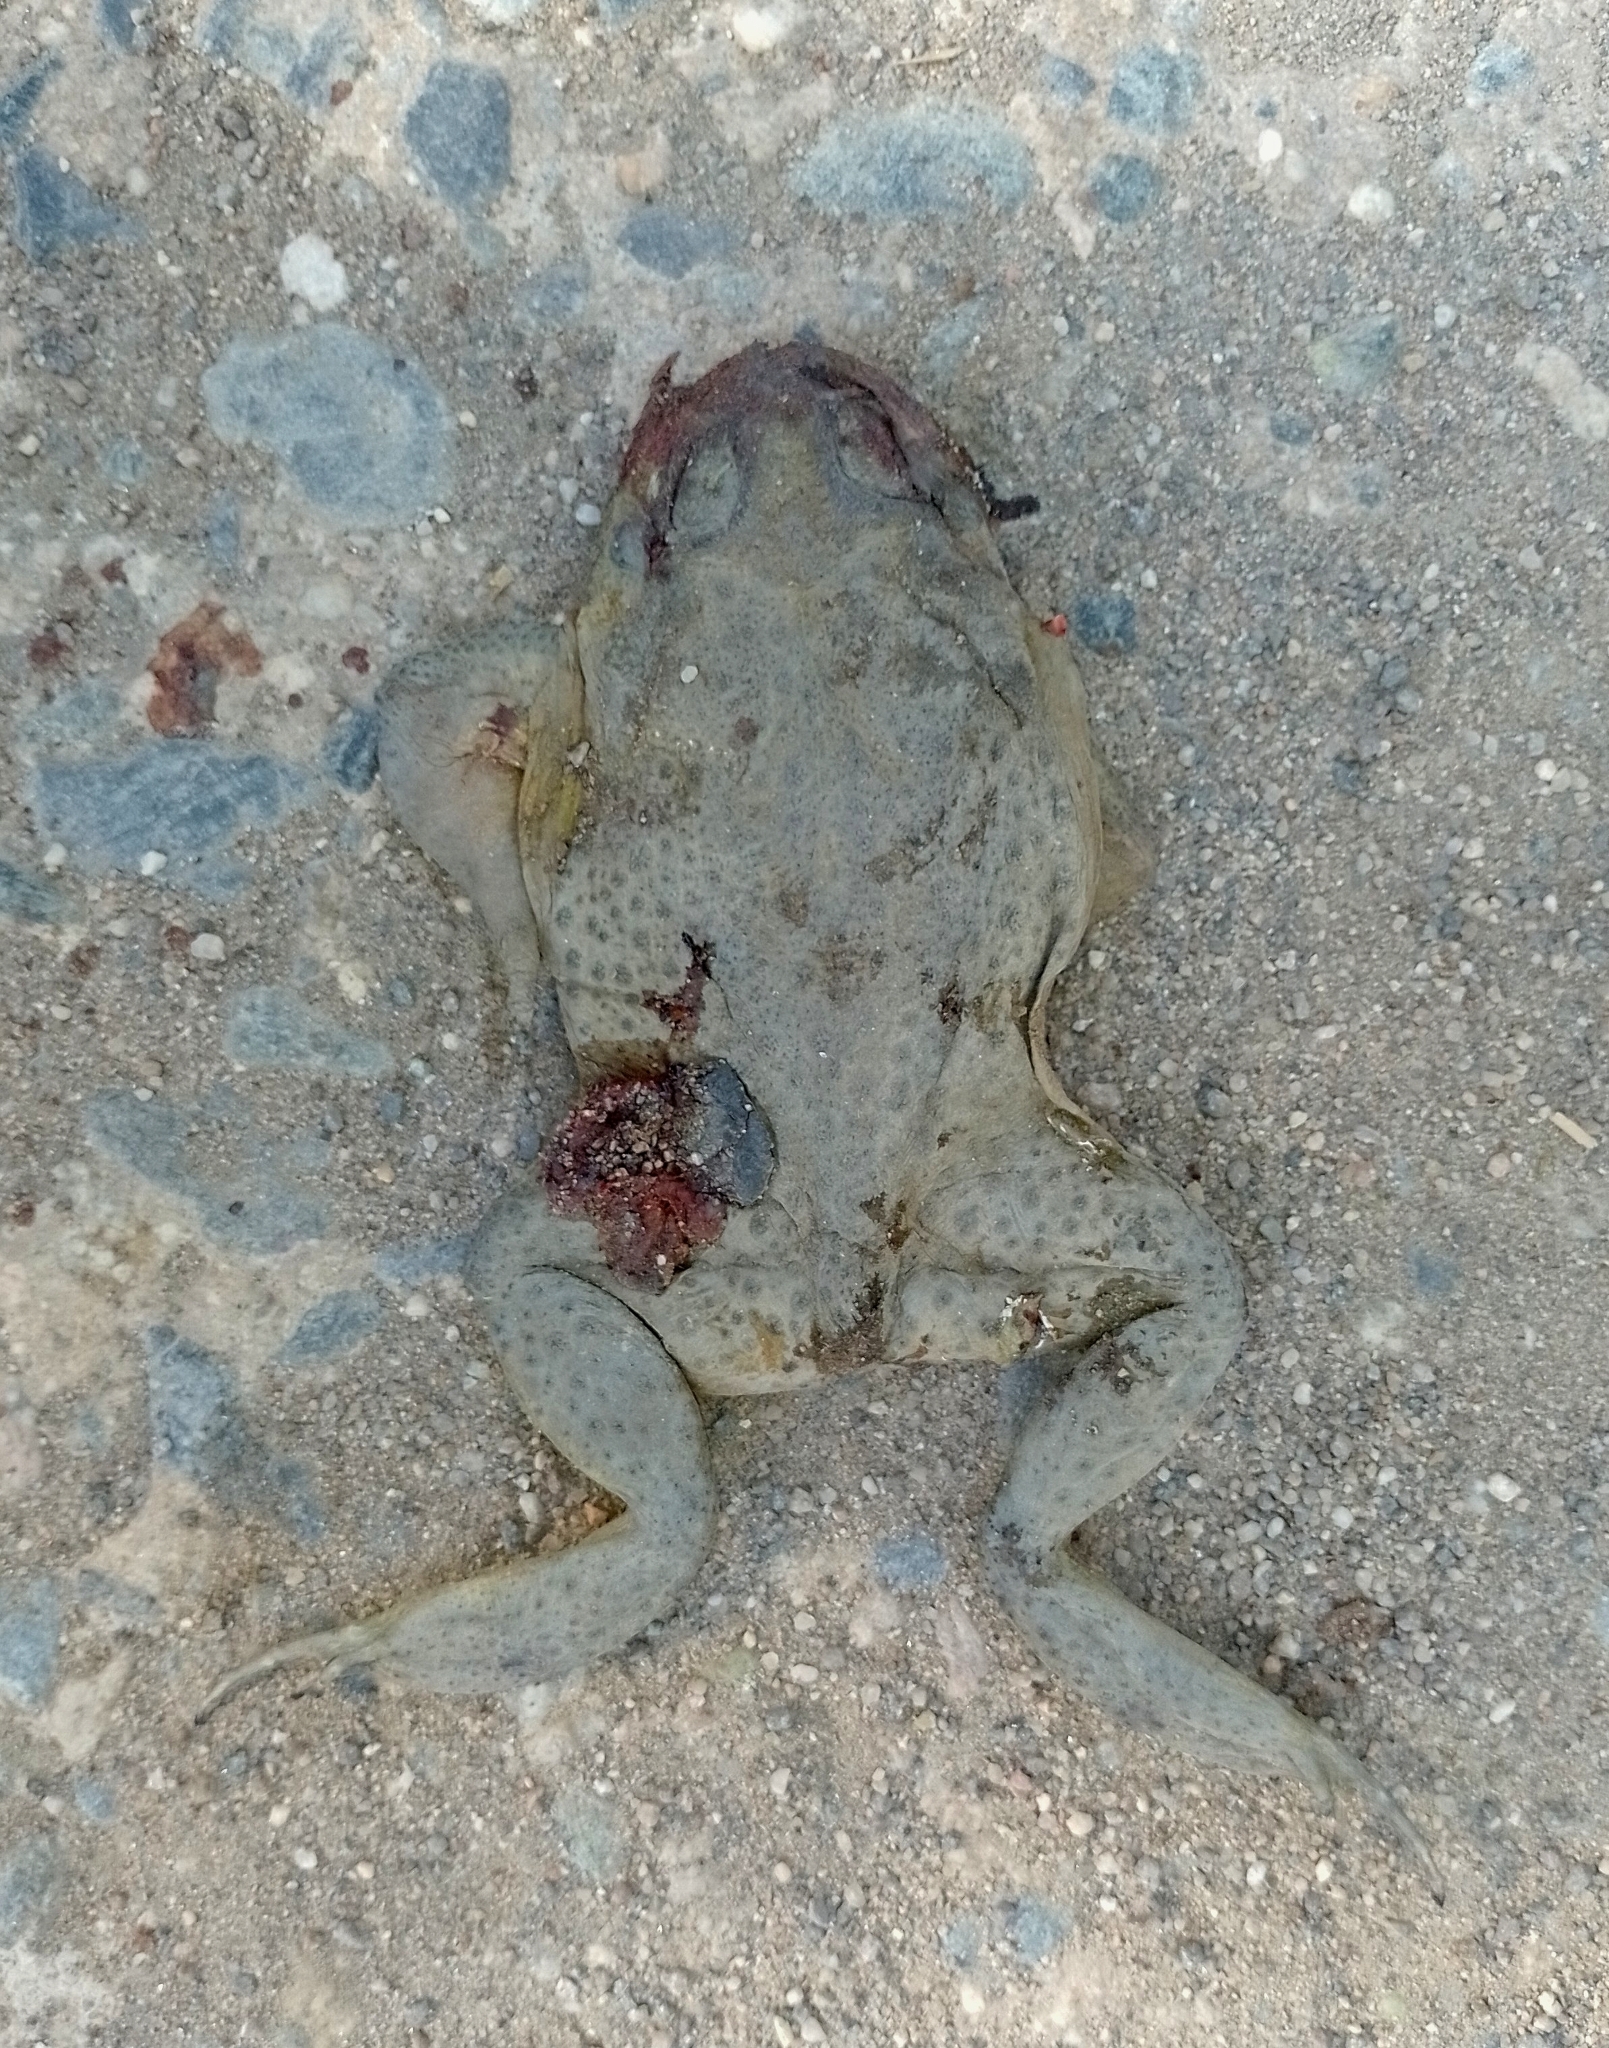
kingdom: Animalia
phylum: Chordata
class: Amphibia
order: Anura
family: Bufonidae
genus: Rhinella
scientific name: Rhinella arenarum
